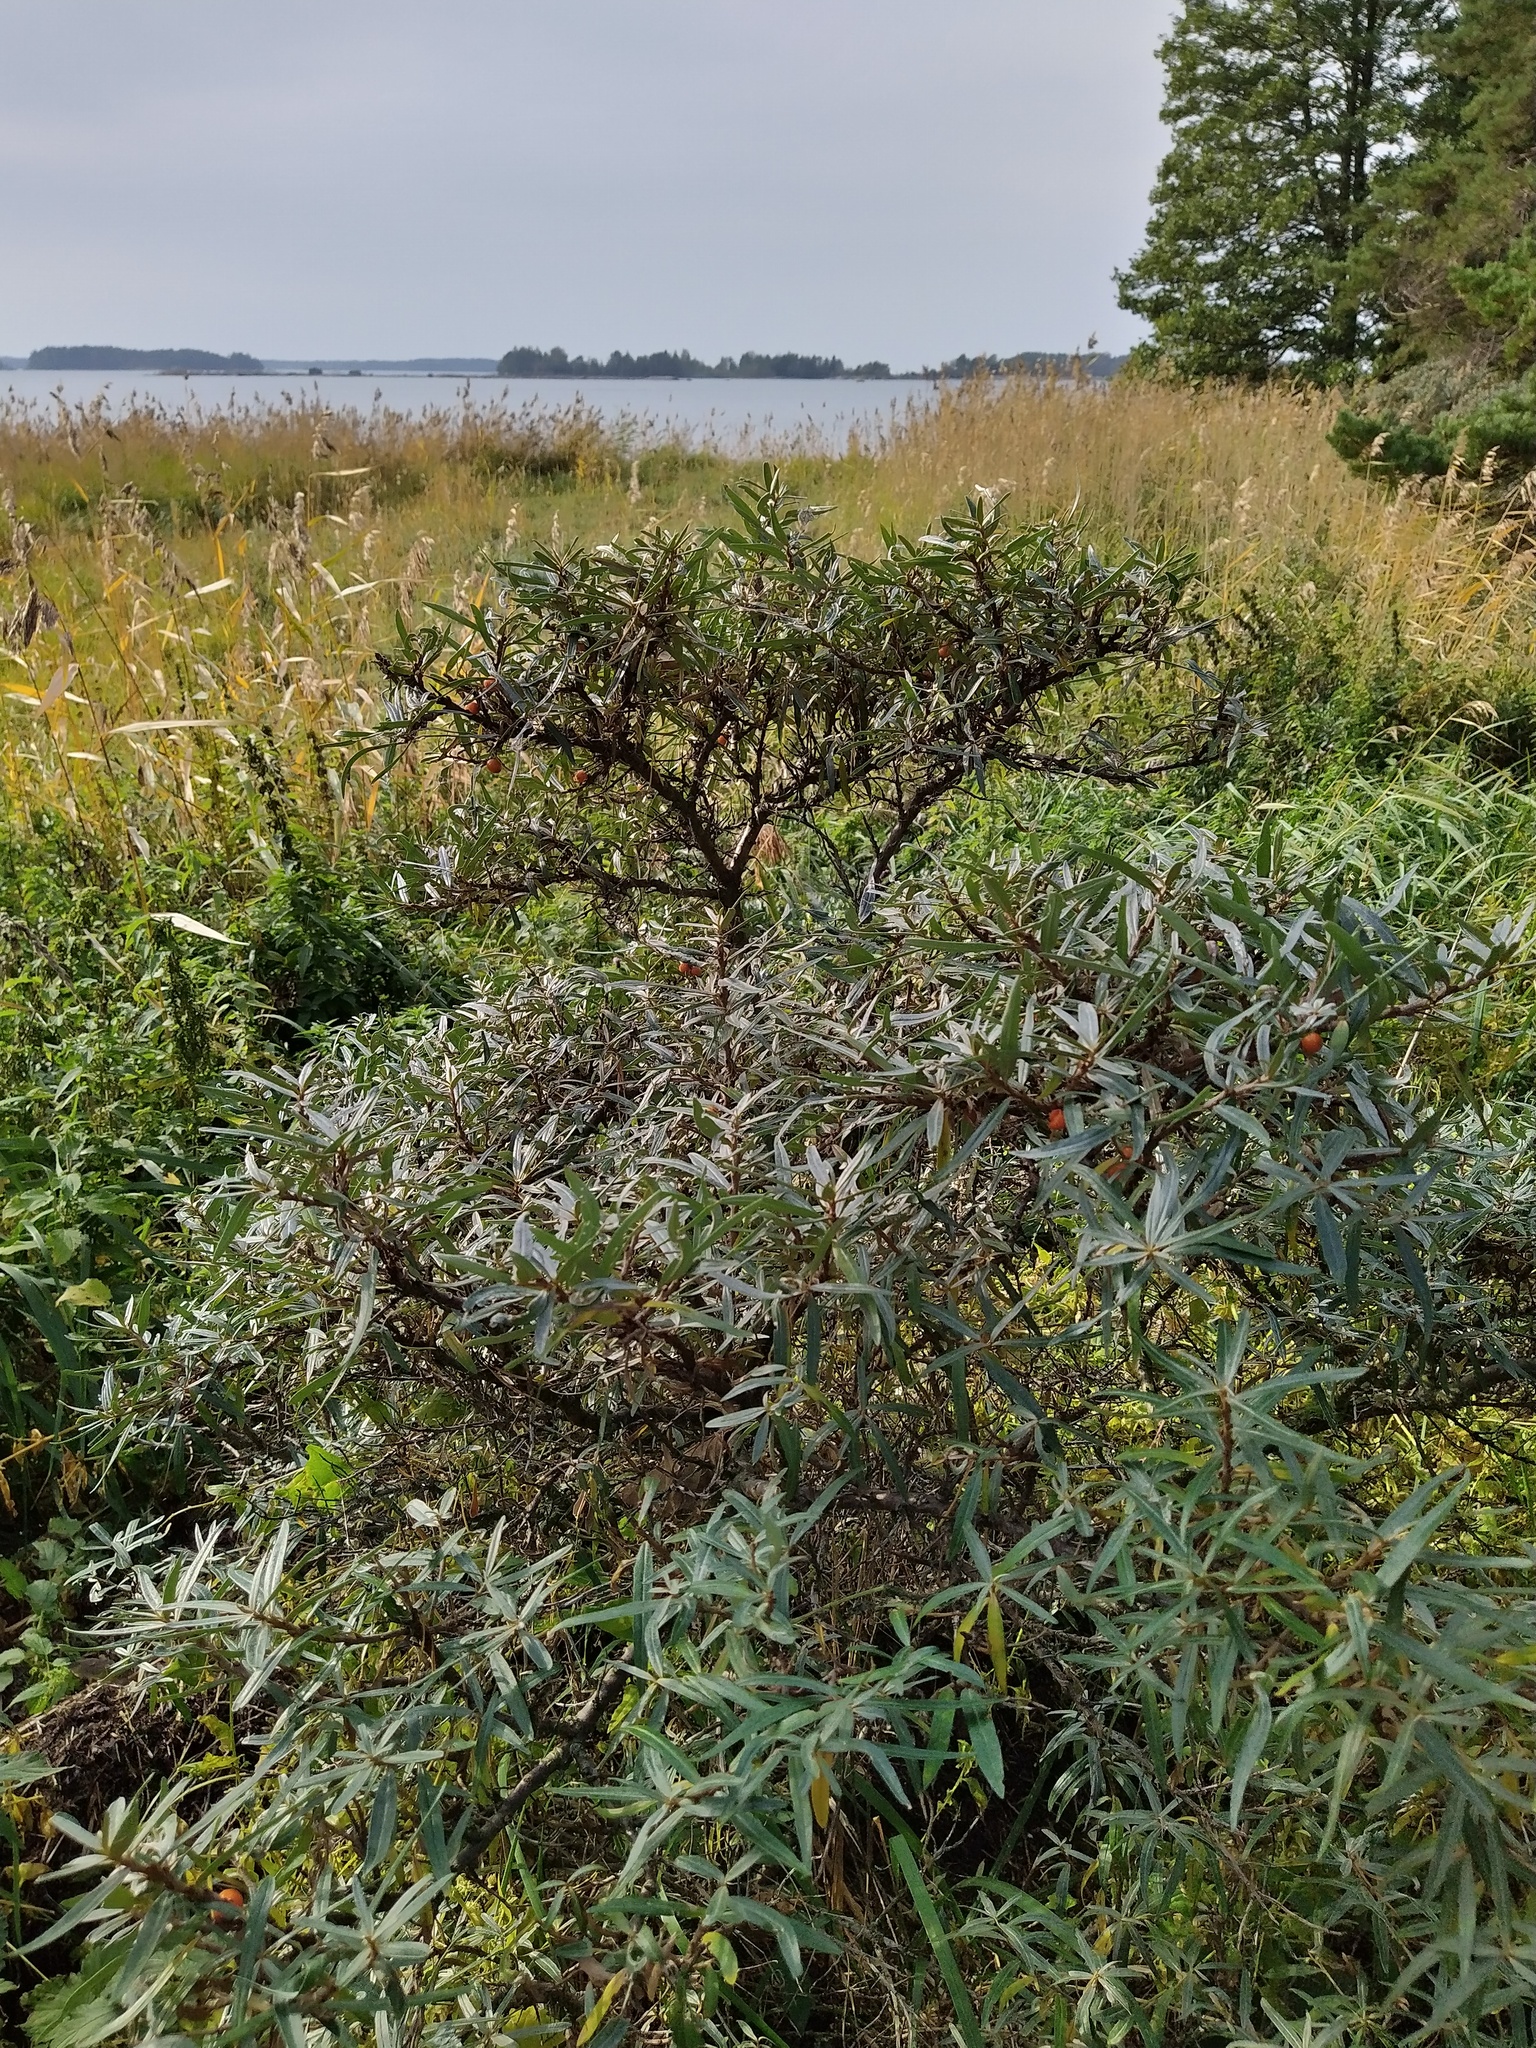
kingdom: Plantae
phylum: Tracheophyta
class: Magnoliopsida
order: Rosales
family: Elaeagnaceae
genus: Hippophae
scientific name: Hippophae rhamnoides
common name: Sea-buckthorn
